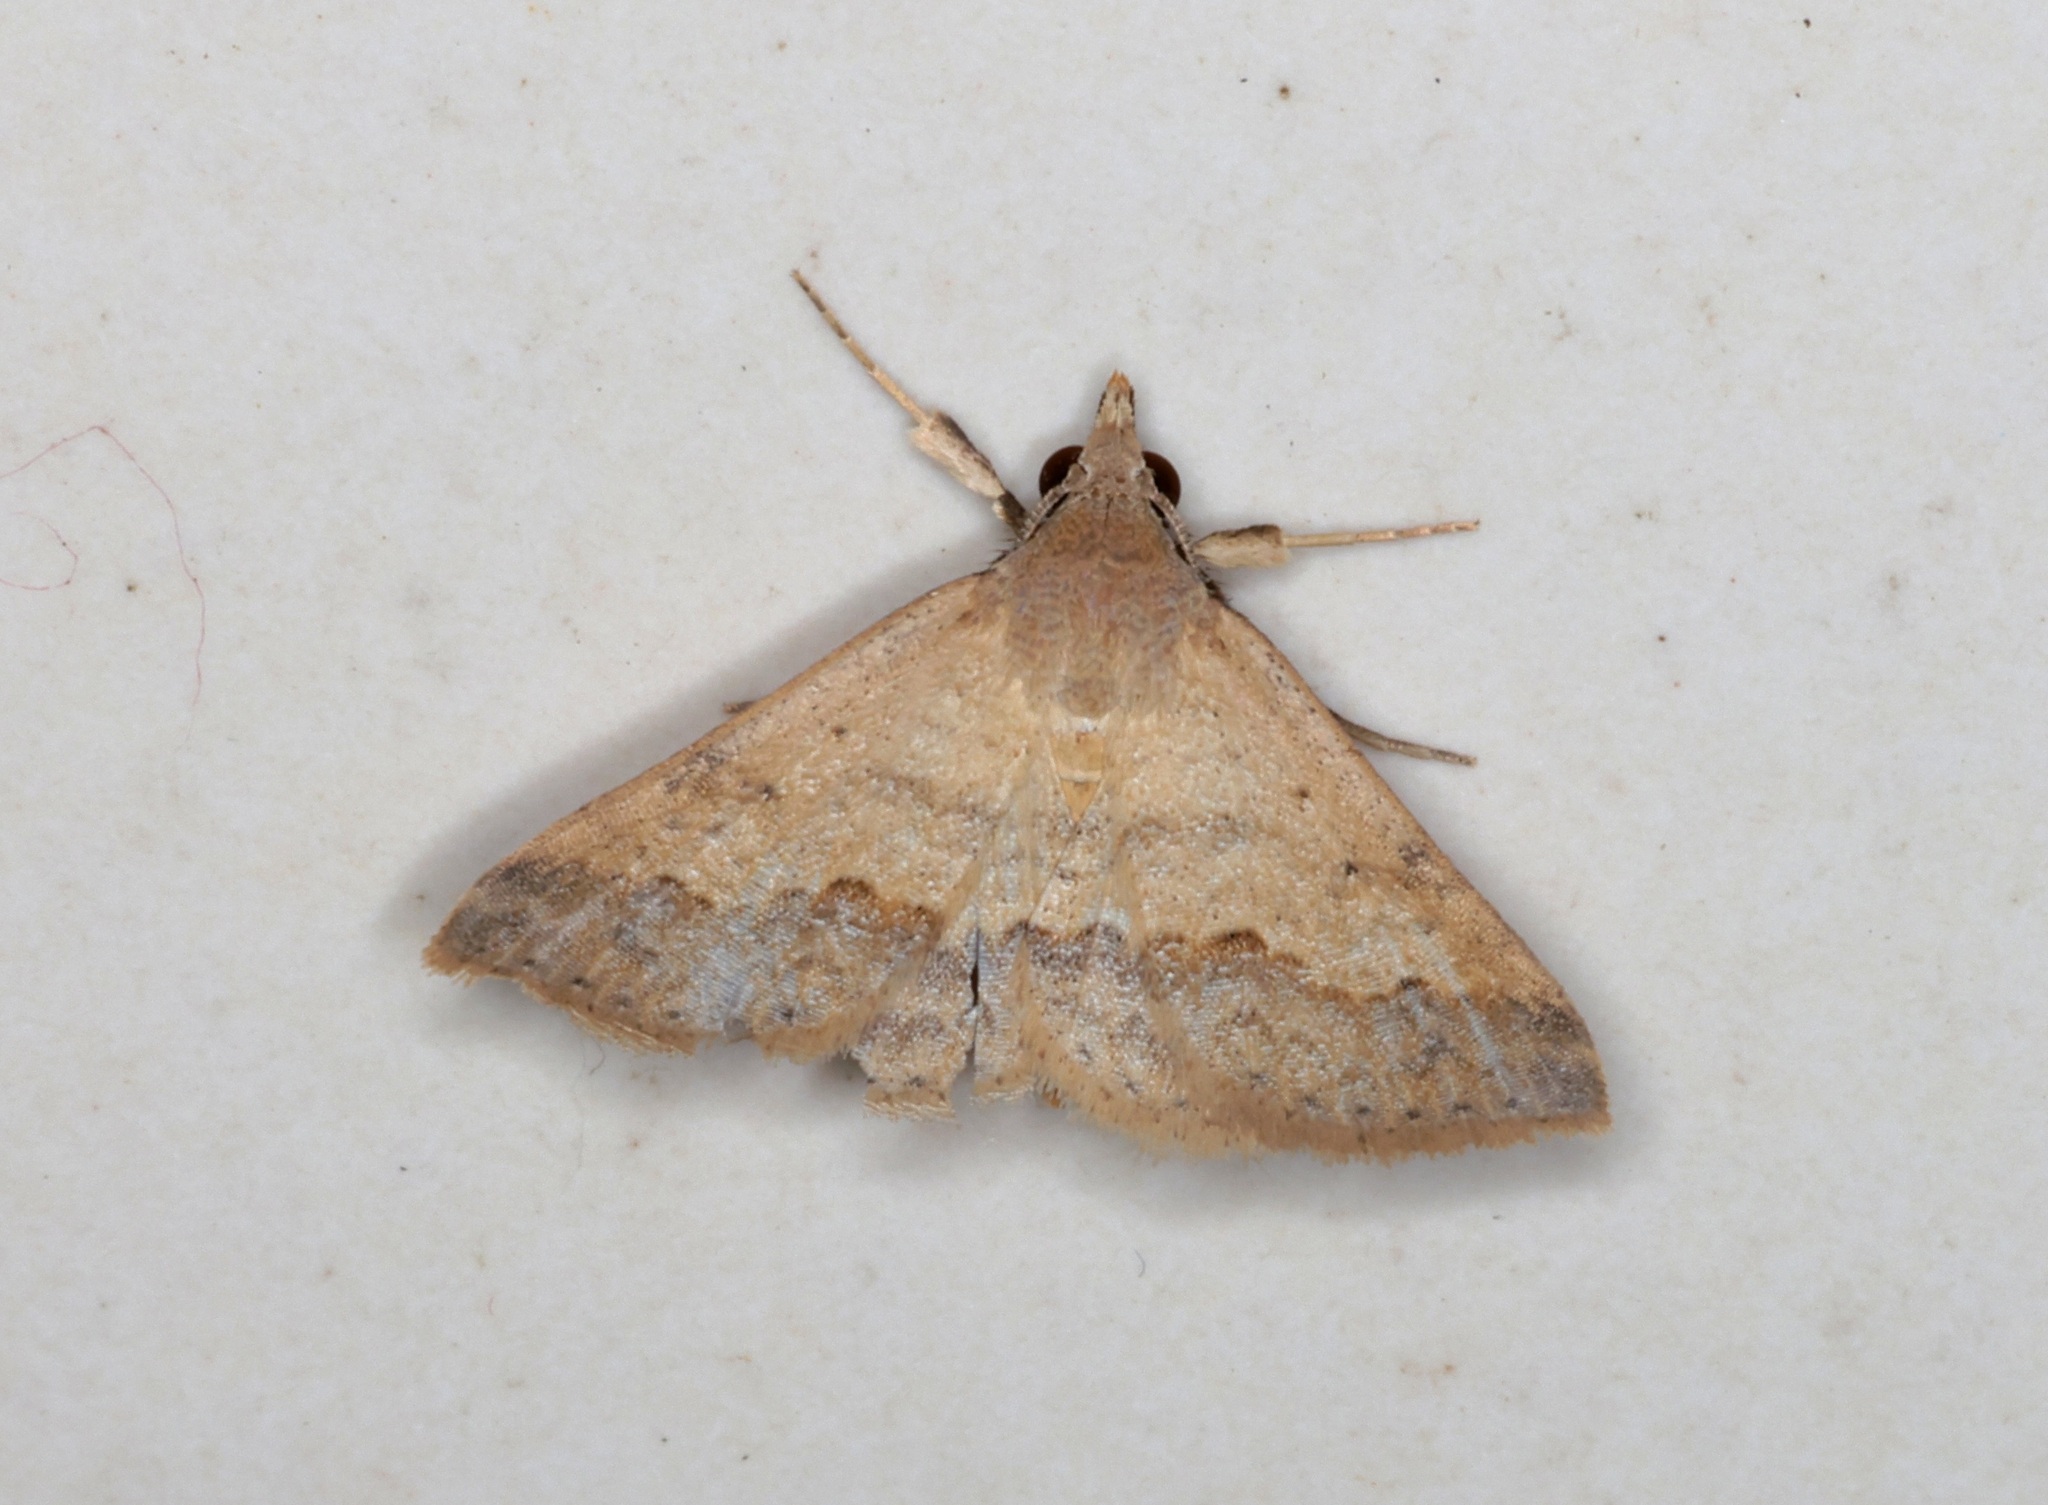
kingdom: Animalia
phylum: Arthropoda
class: Insecta
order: Lepidoptera
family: Erebidae
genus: Gesonia
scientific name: Gesonia obeditalis
